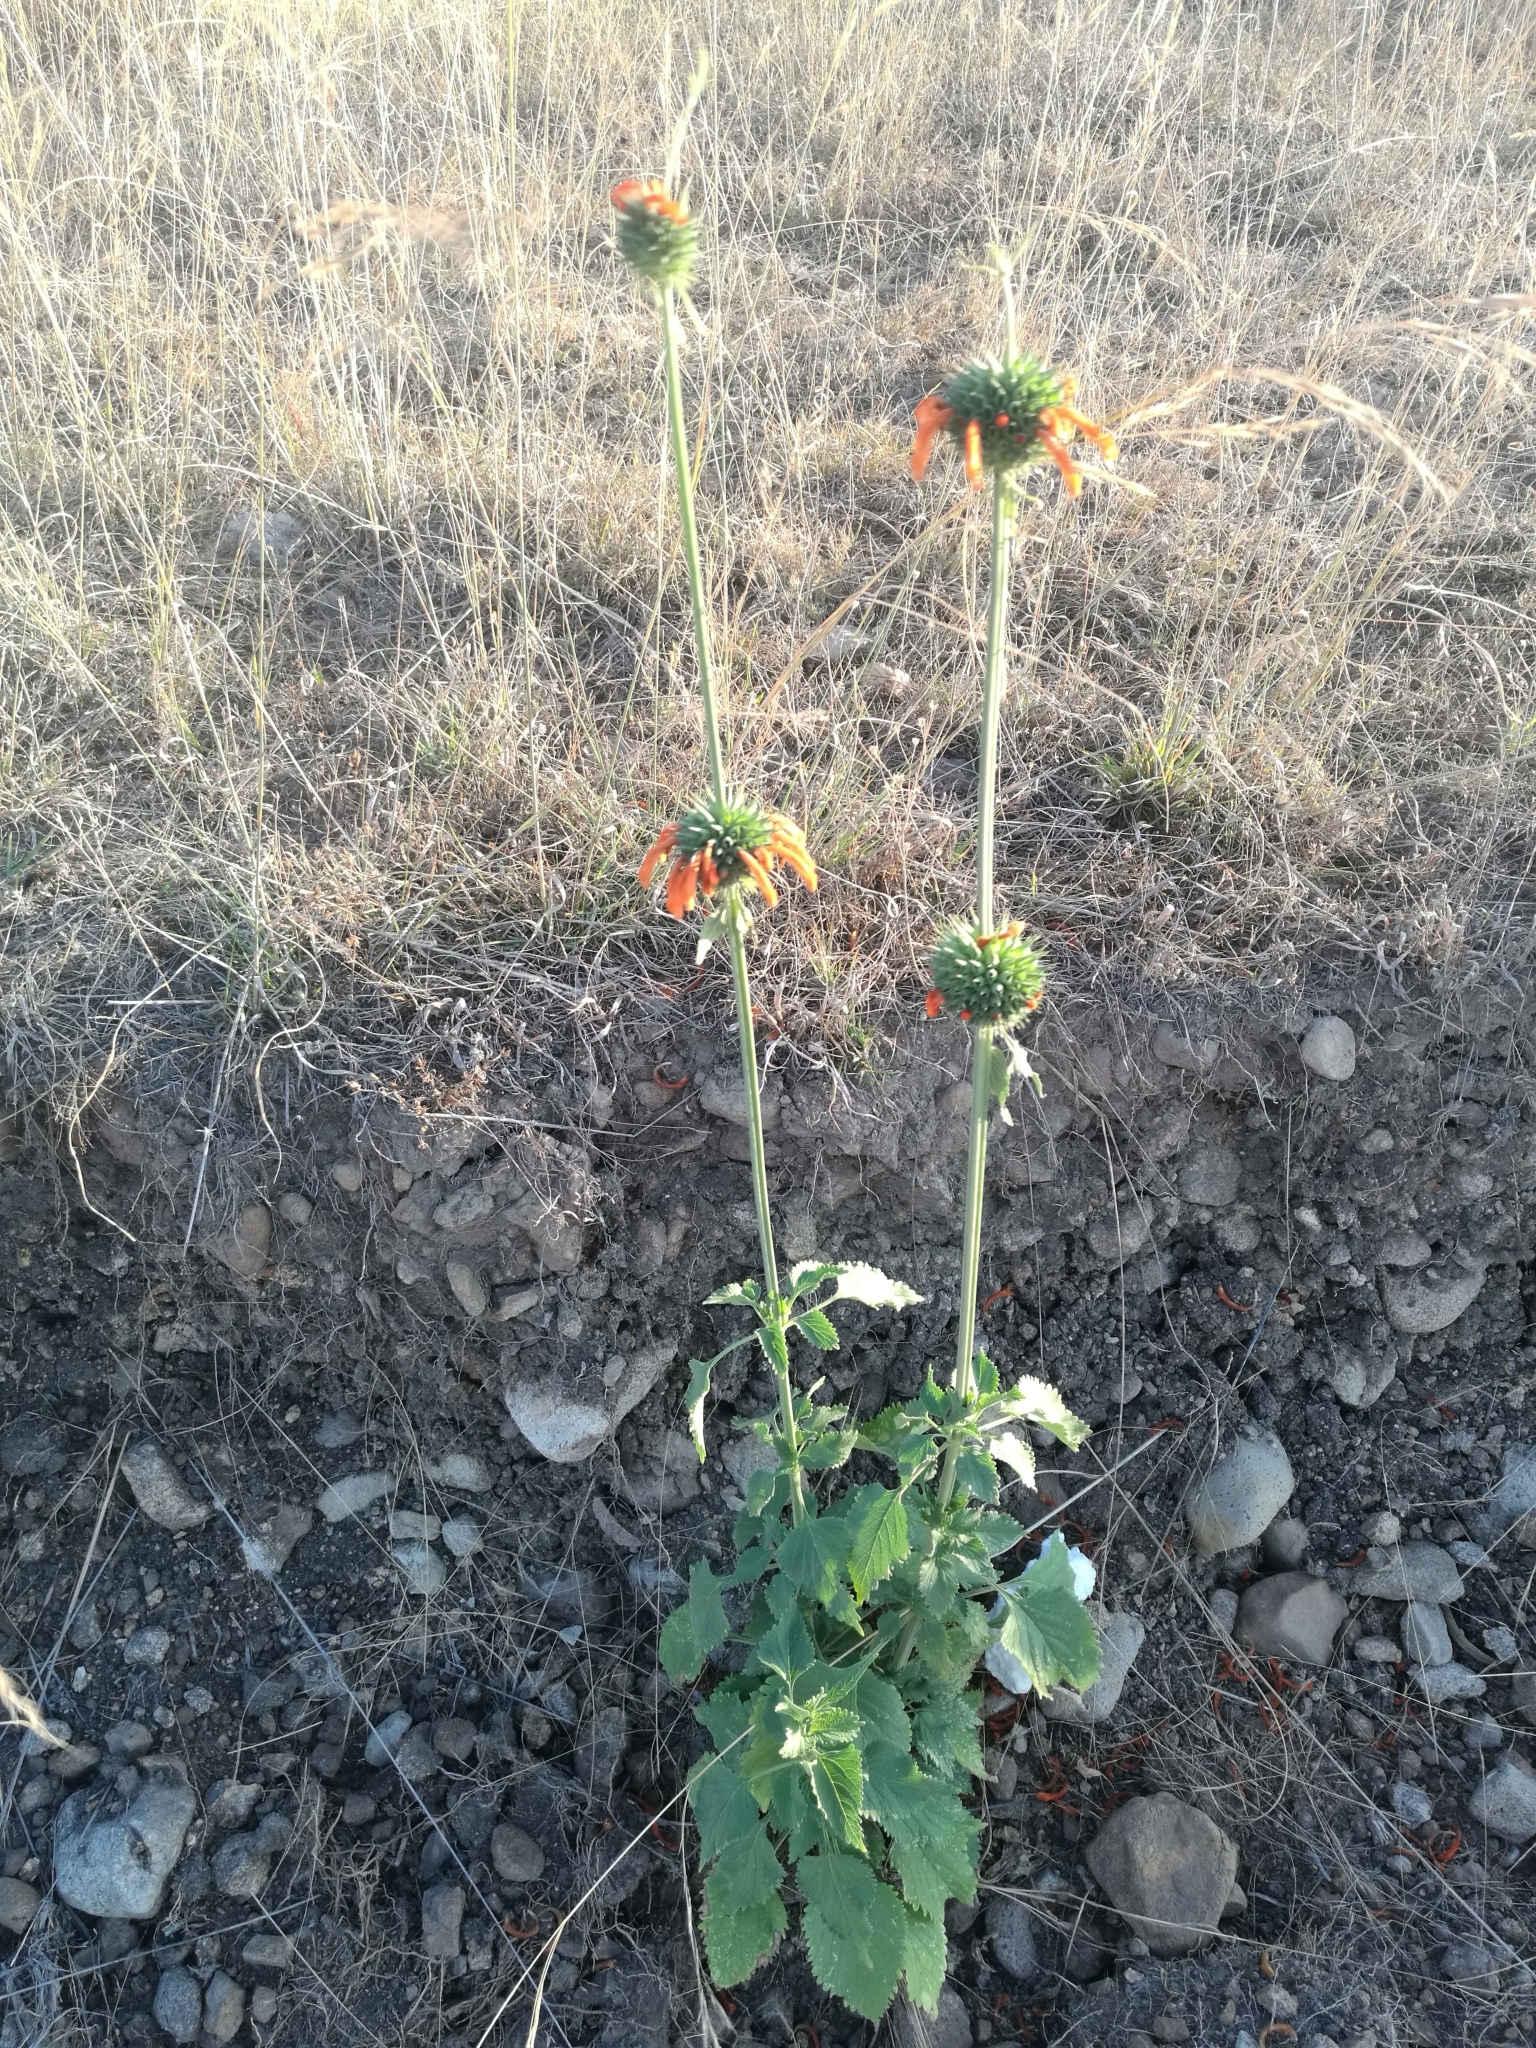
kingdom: Plantae
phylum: Tracheophyta
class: Magnoliopsida
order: Lamiales
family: Lamiaceae
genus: Leonotis
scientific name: Leonotis nepetifolia
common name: Christmas candlestick
